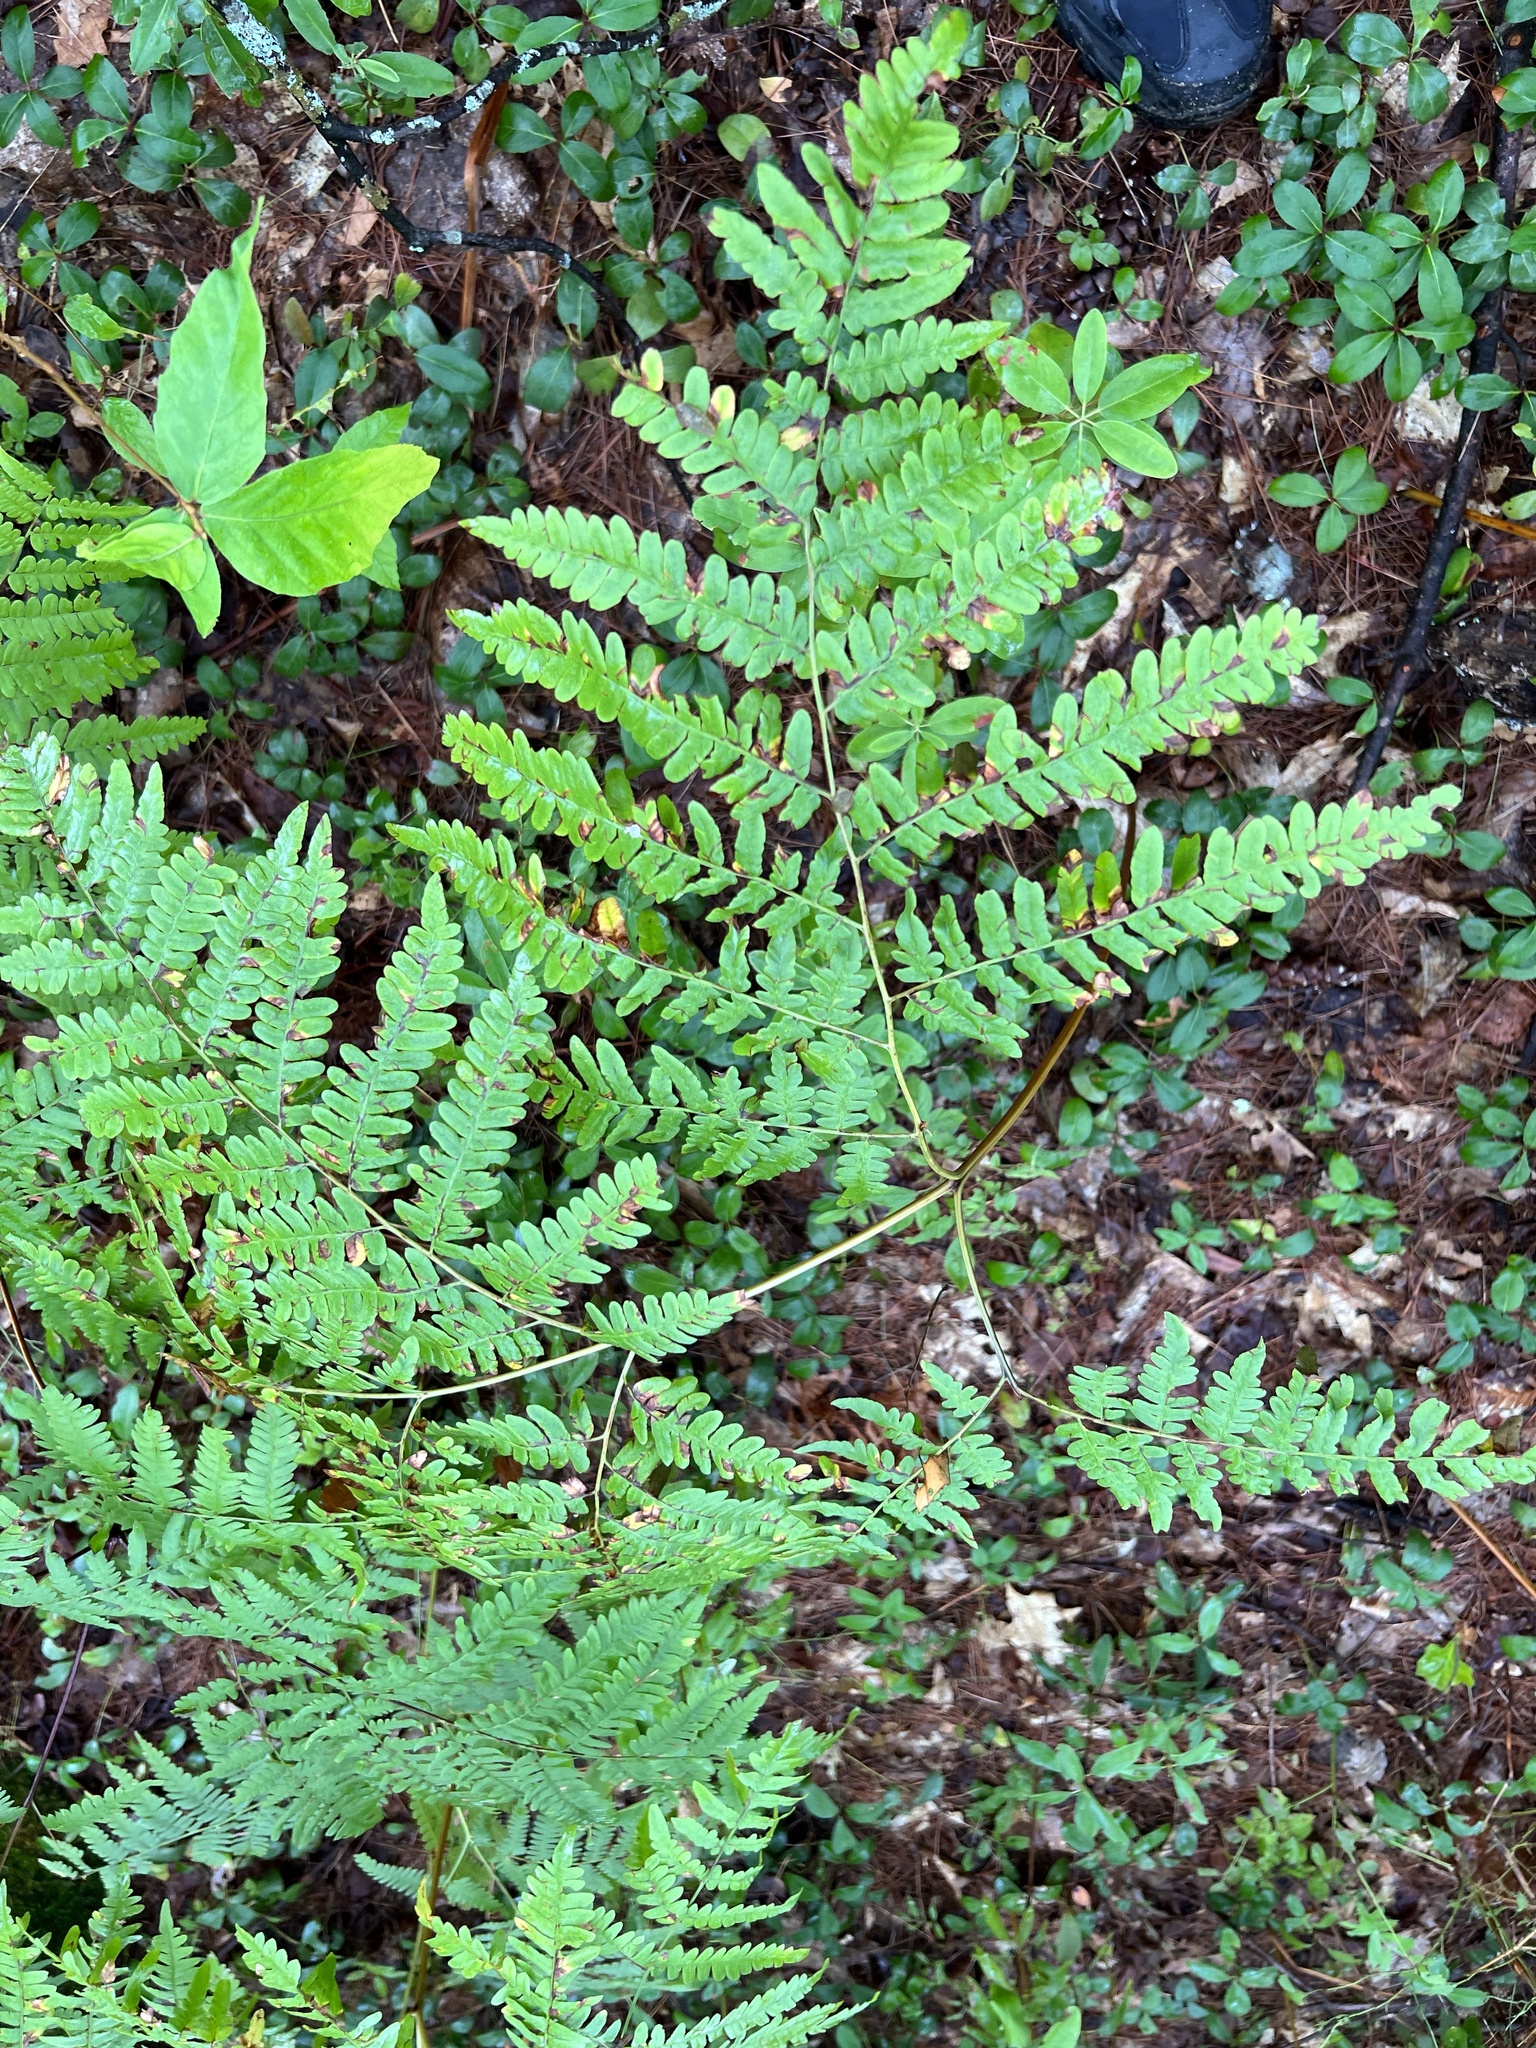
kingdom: Plantae
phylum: Tracheophyta
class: Polypodiopsida
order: Polypodiales
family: Dennstaedtiaceae
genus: Pteridium
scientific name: Pteridium aquilinum
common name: Bracken
